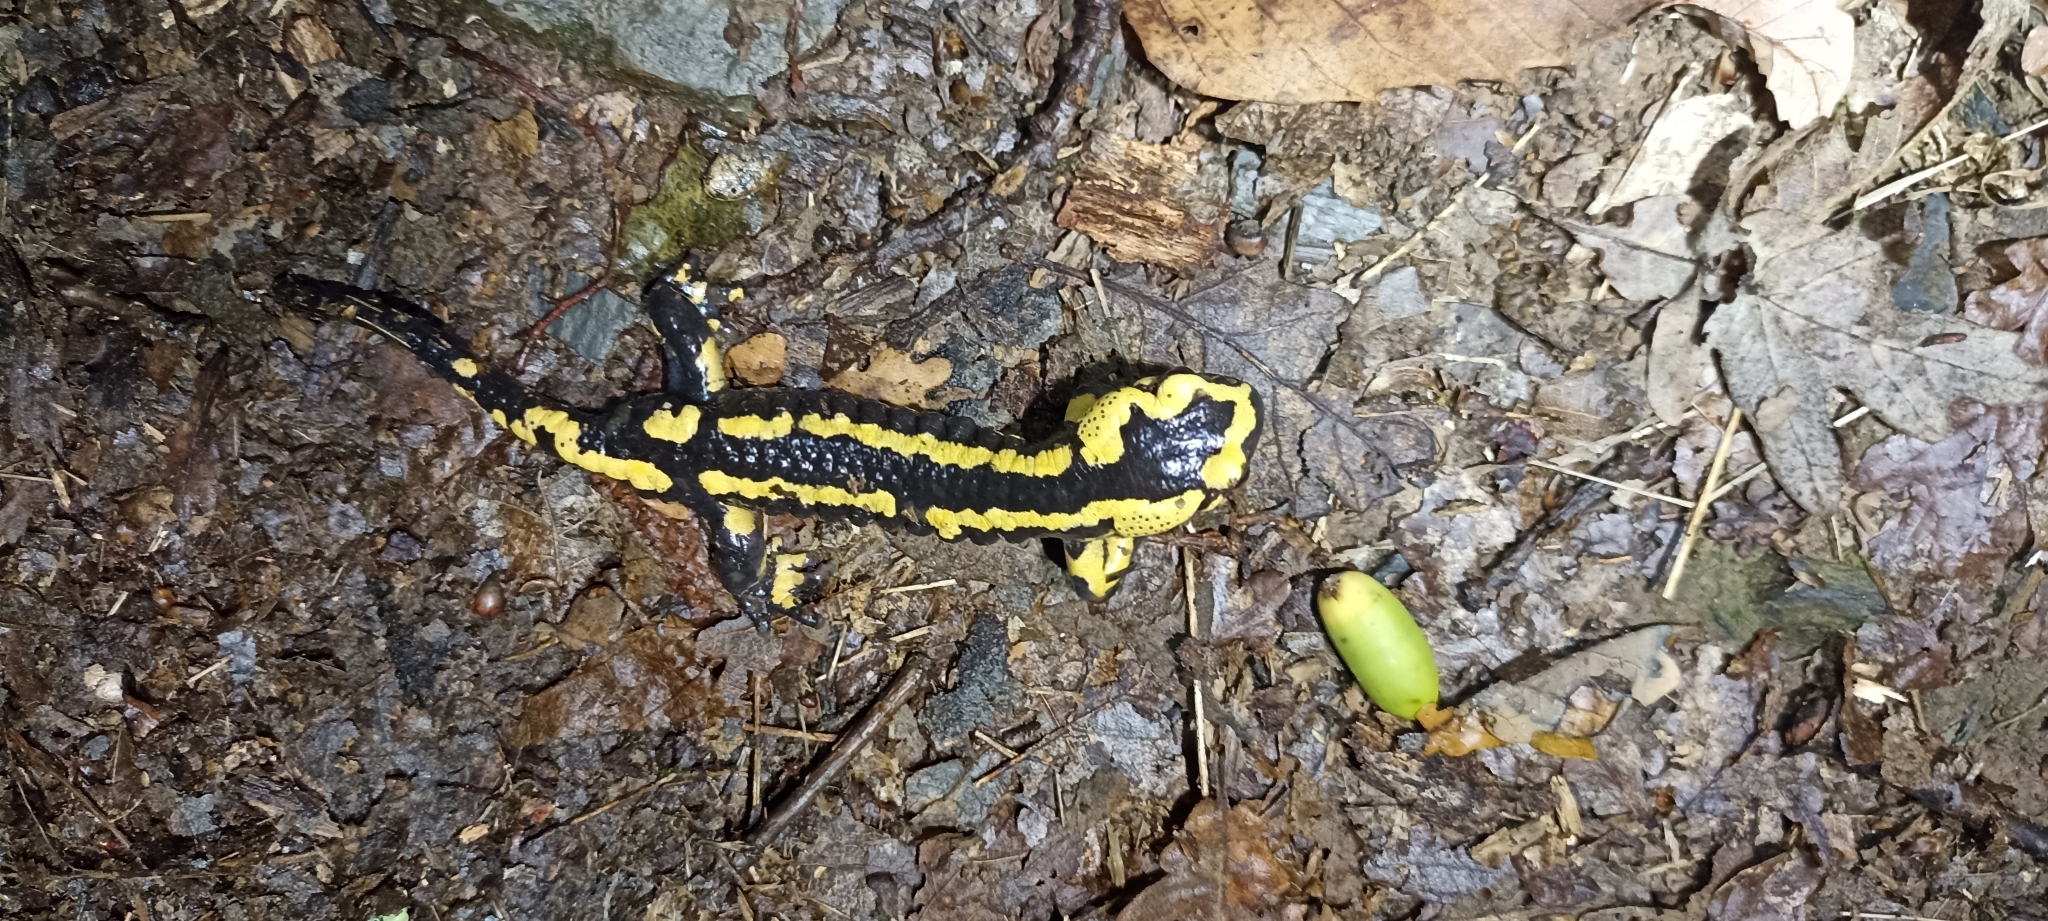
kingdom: Animalia
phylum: Chordata
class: Amphibia
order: Caudata
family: Salamandridae
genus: Salamandra
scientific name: Salamandra salamandra
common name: Fire salamander
